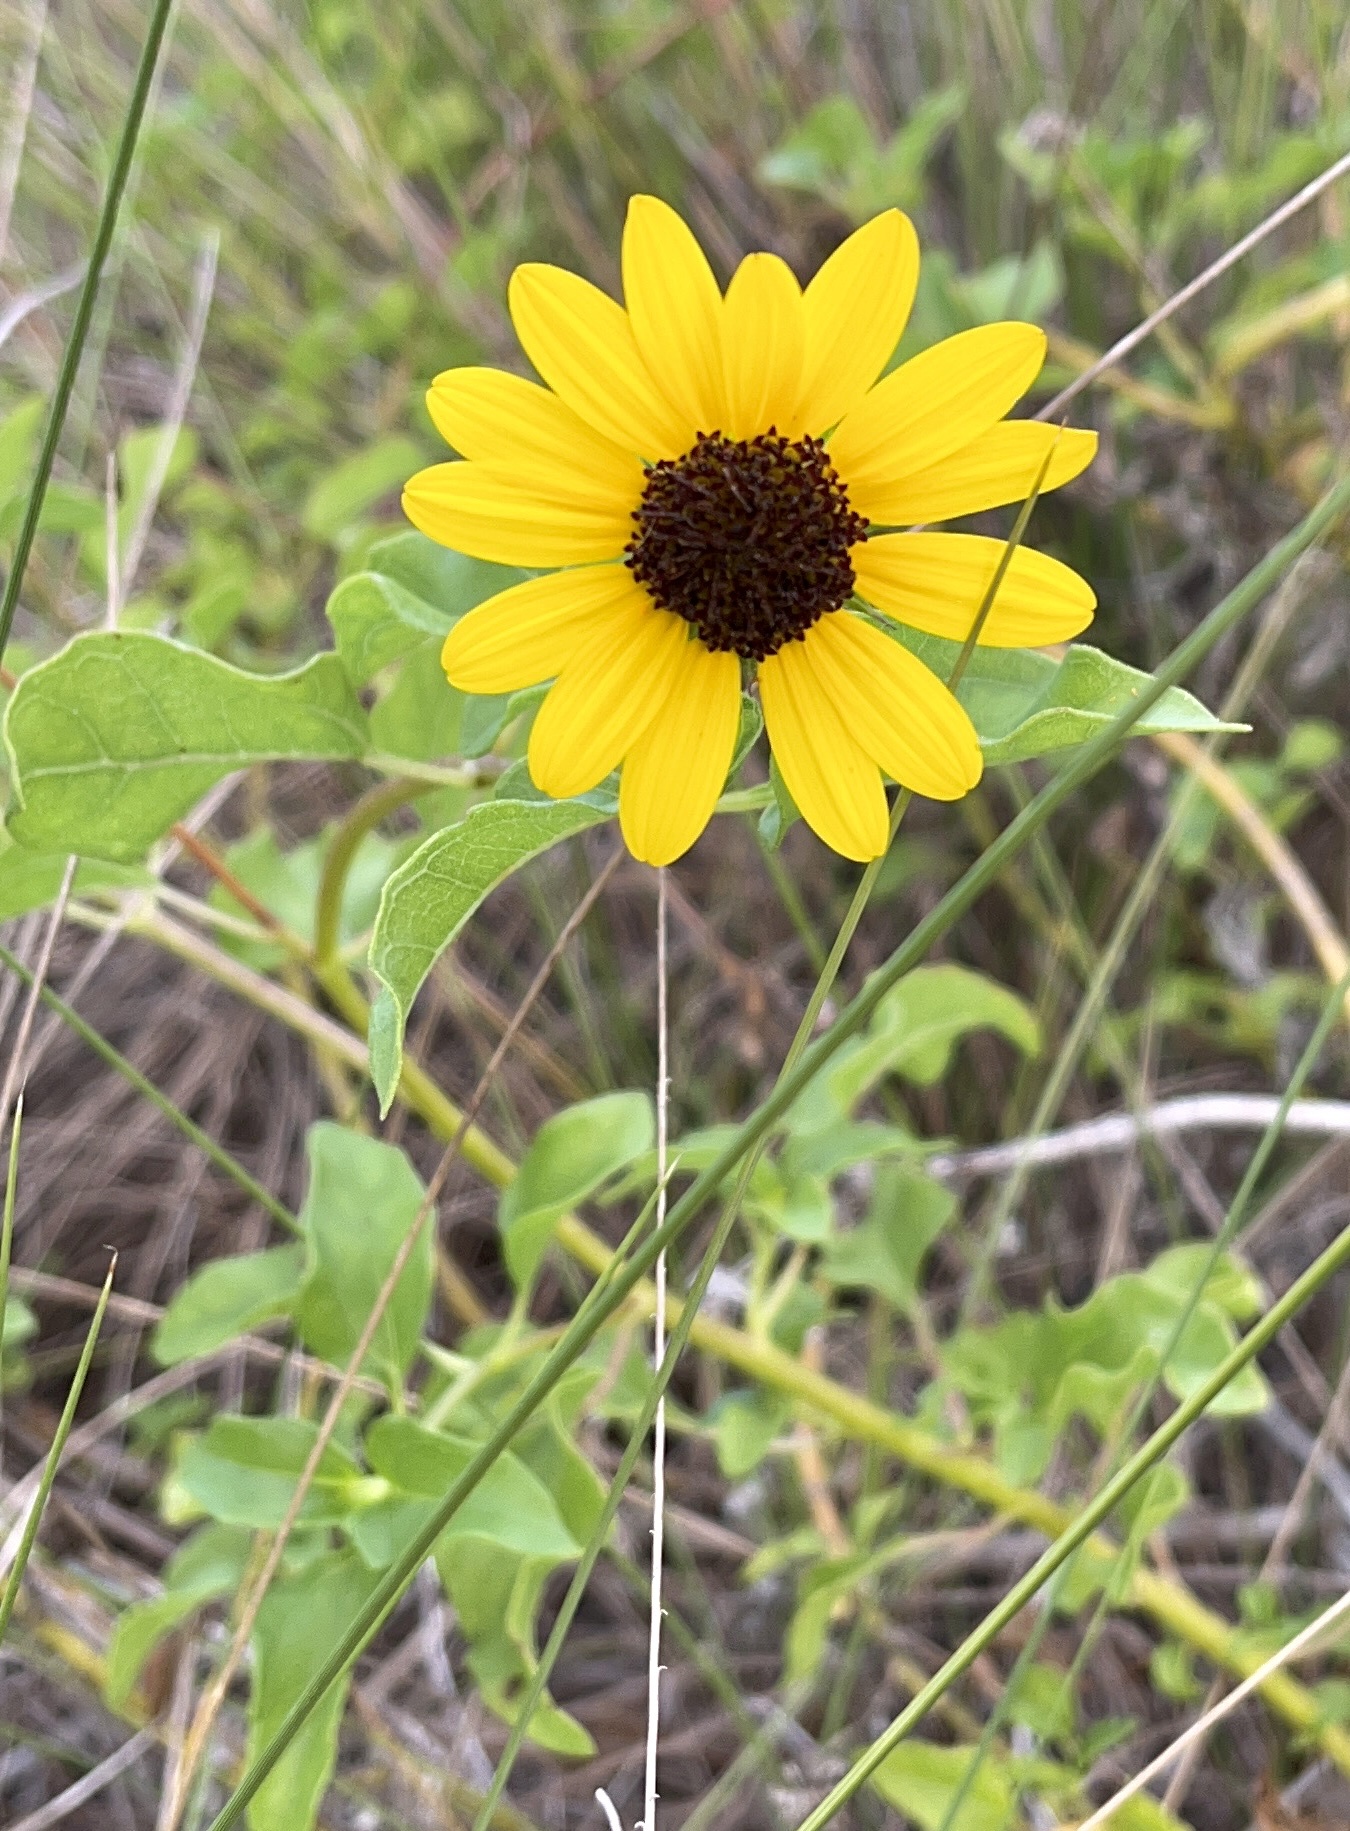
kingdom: Plantae
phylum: Tracheophyta
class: Magnoliopsida
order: Asterales
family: Asteraceae
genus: Helianthus
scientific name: Helianthus debilis
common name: Weak sunflower
